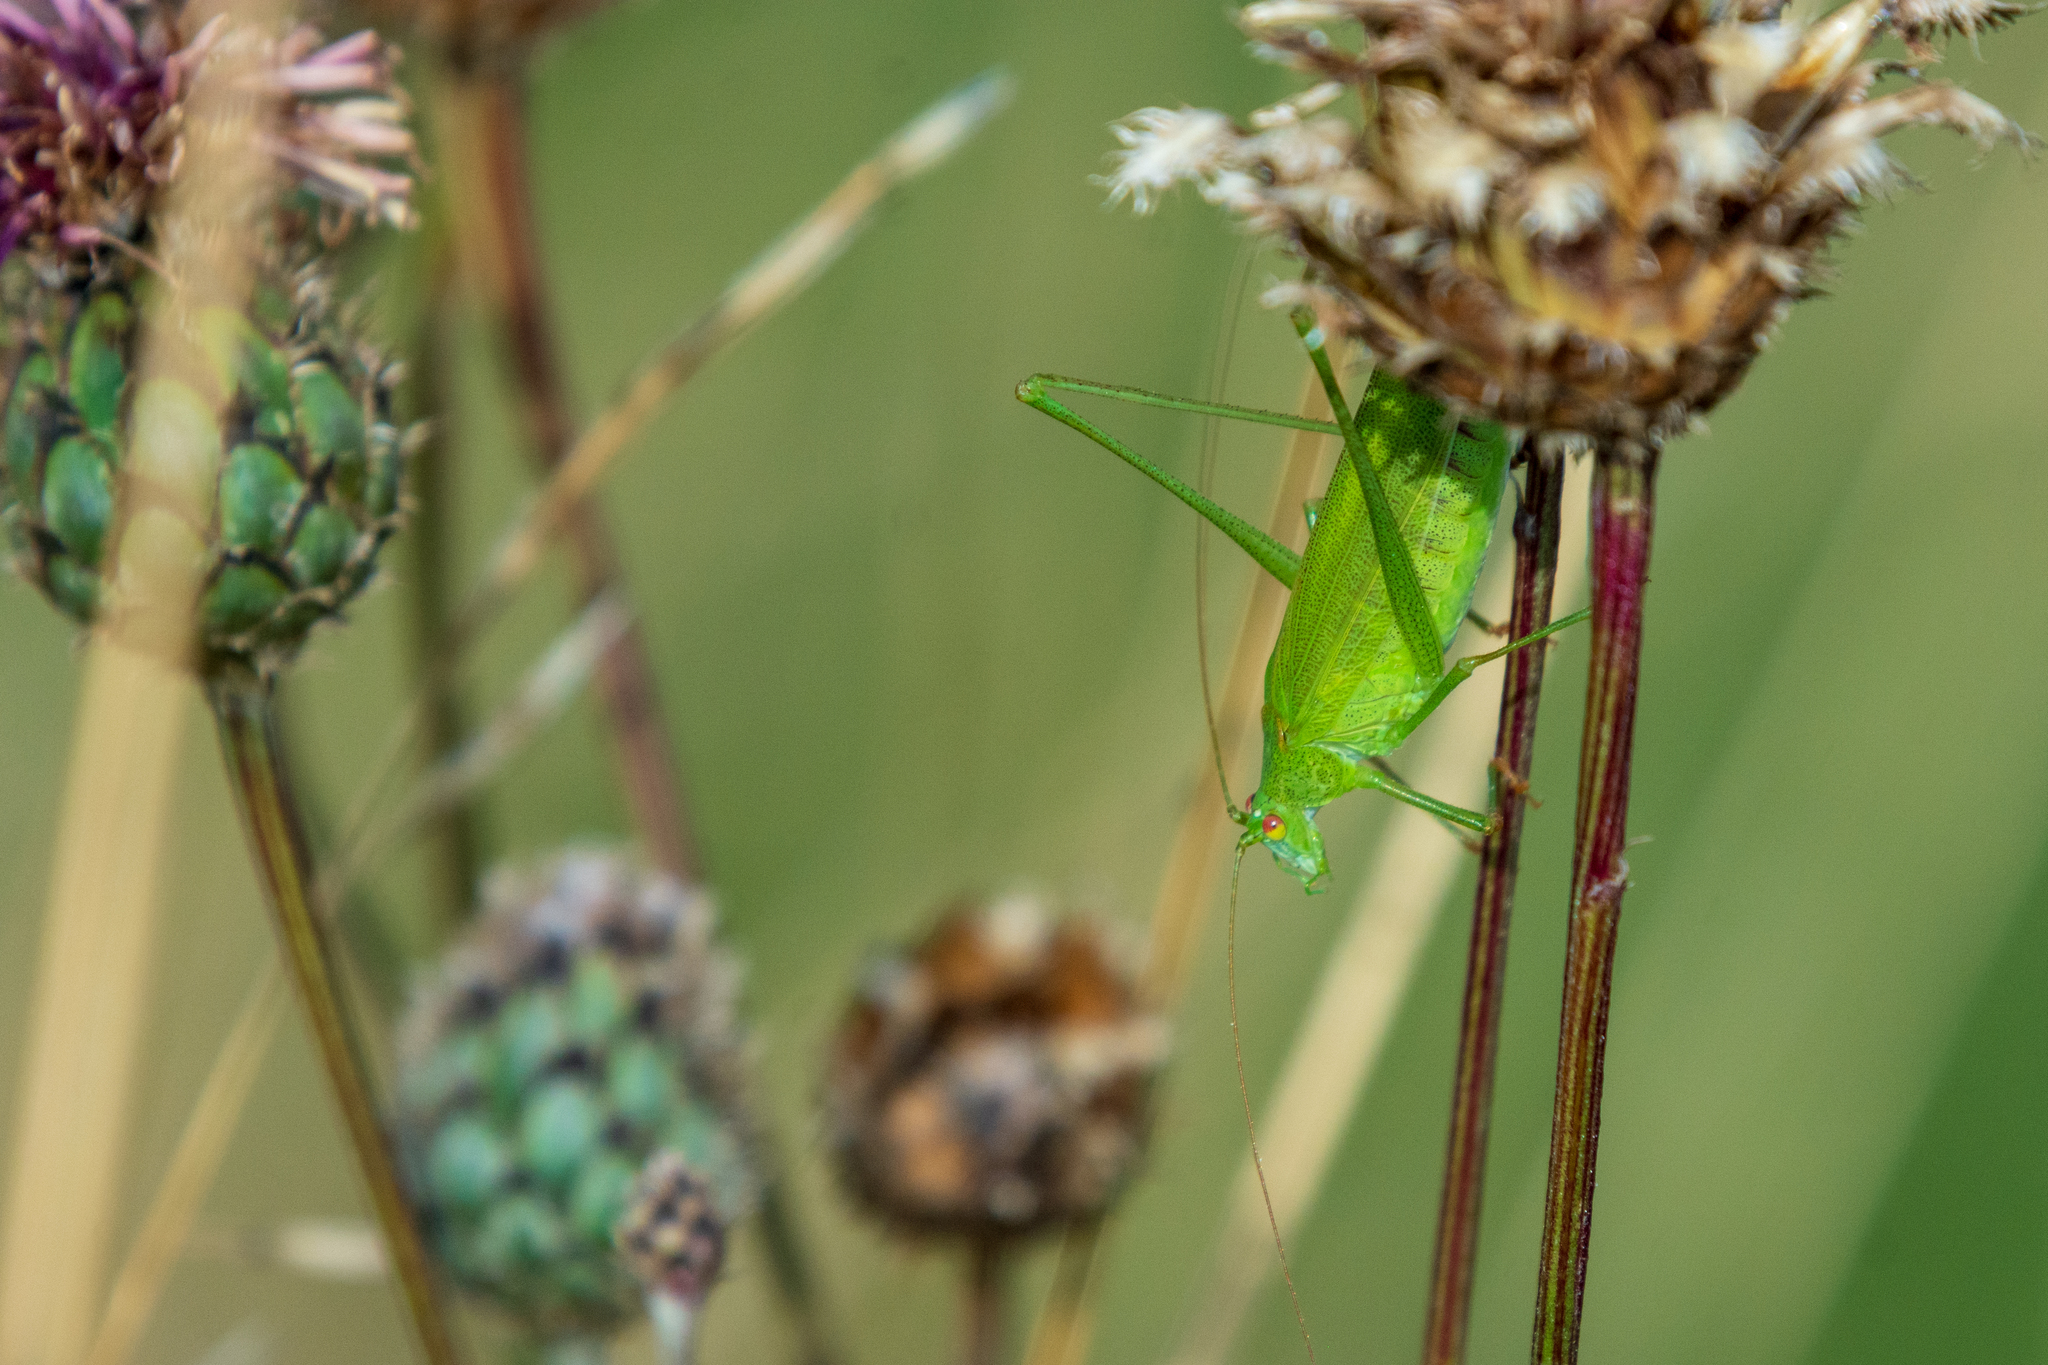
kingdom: Animalia
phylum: Arthropoda
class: Insecta
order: Orthoptera
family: Tettigoniidae
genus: Phaneroptera
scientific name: Phaneroptera falcata
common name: Sickle-bearing bush-cricket
